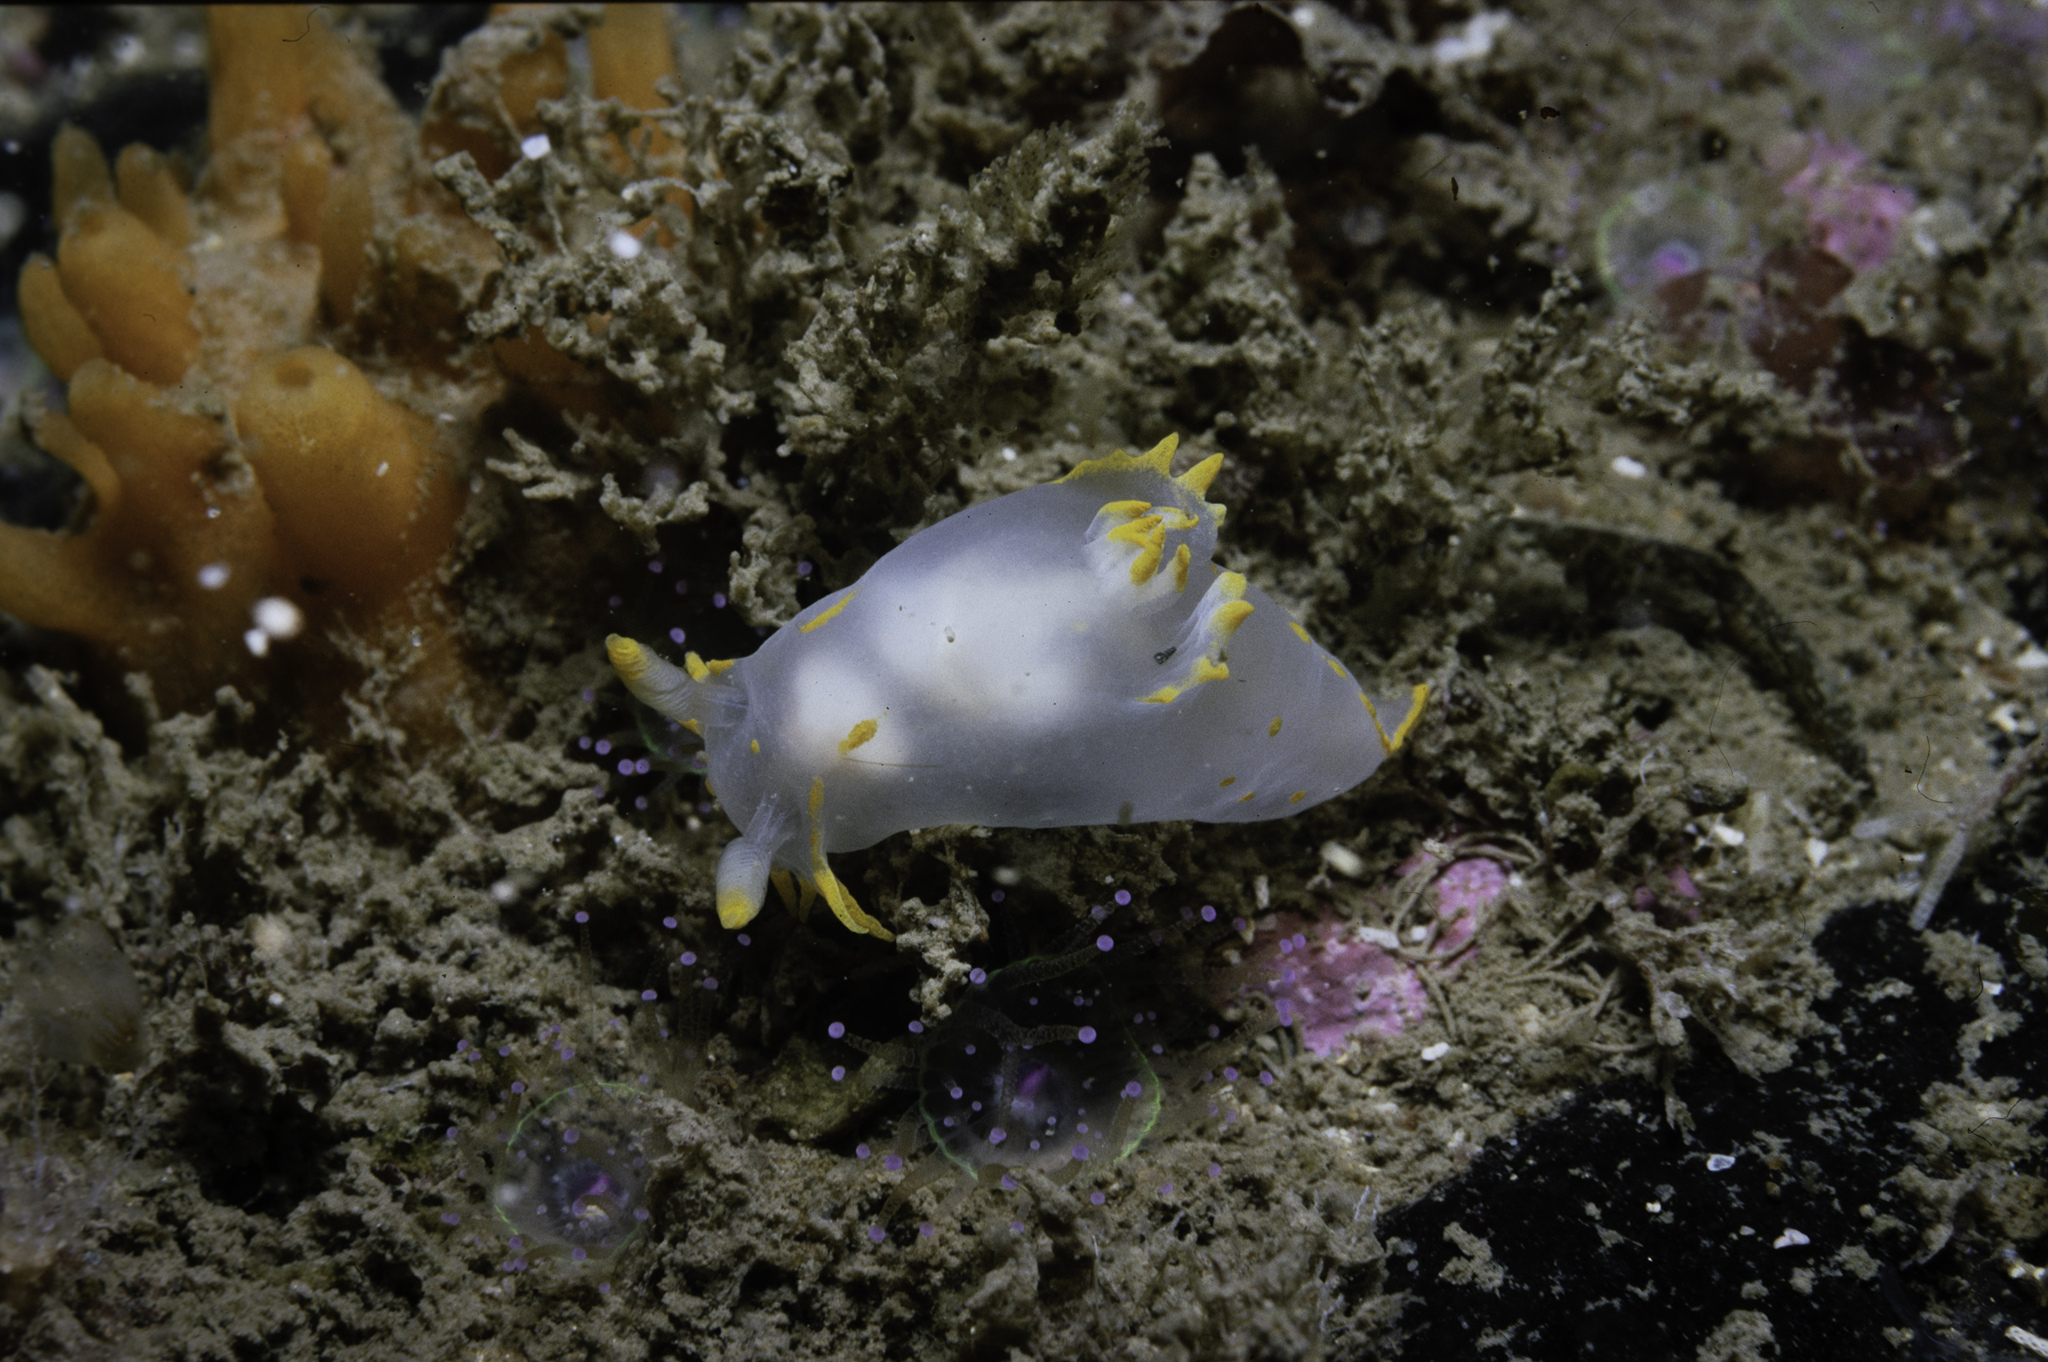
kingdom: Animalia
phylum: Mollusca
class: Gastropoda
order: Nudibranchia
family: Polyceridae
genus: Polycera
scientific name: Polycera faeroensis
